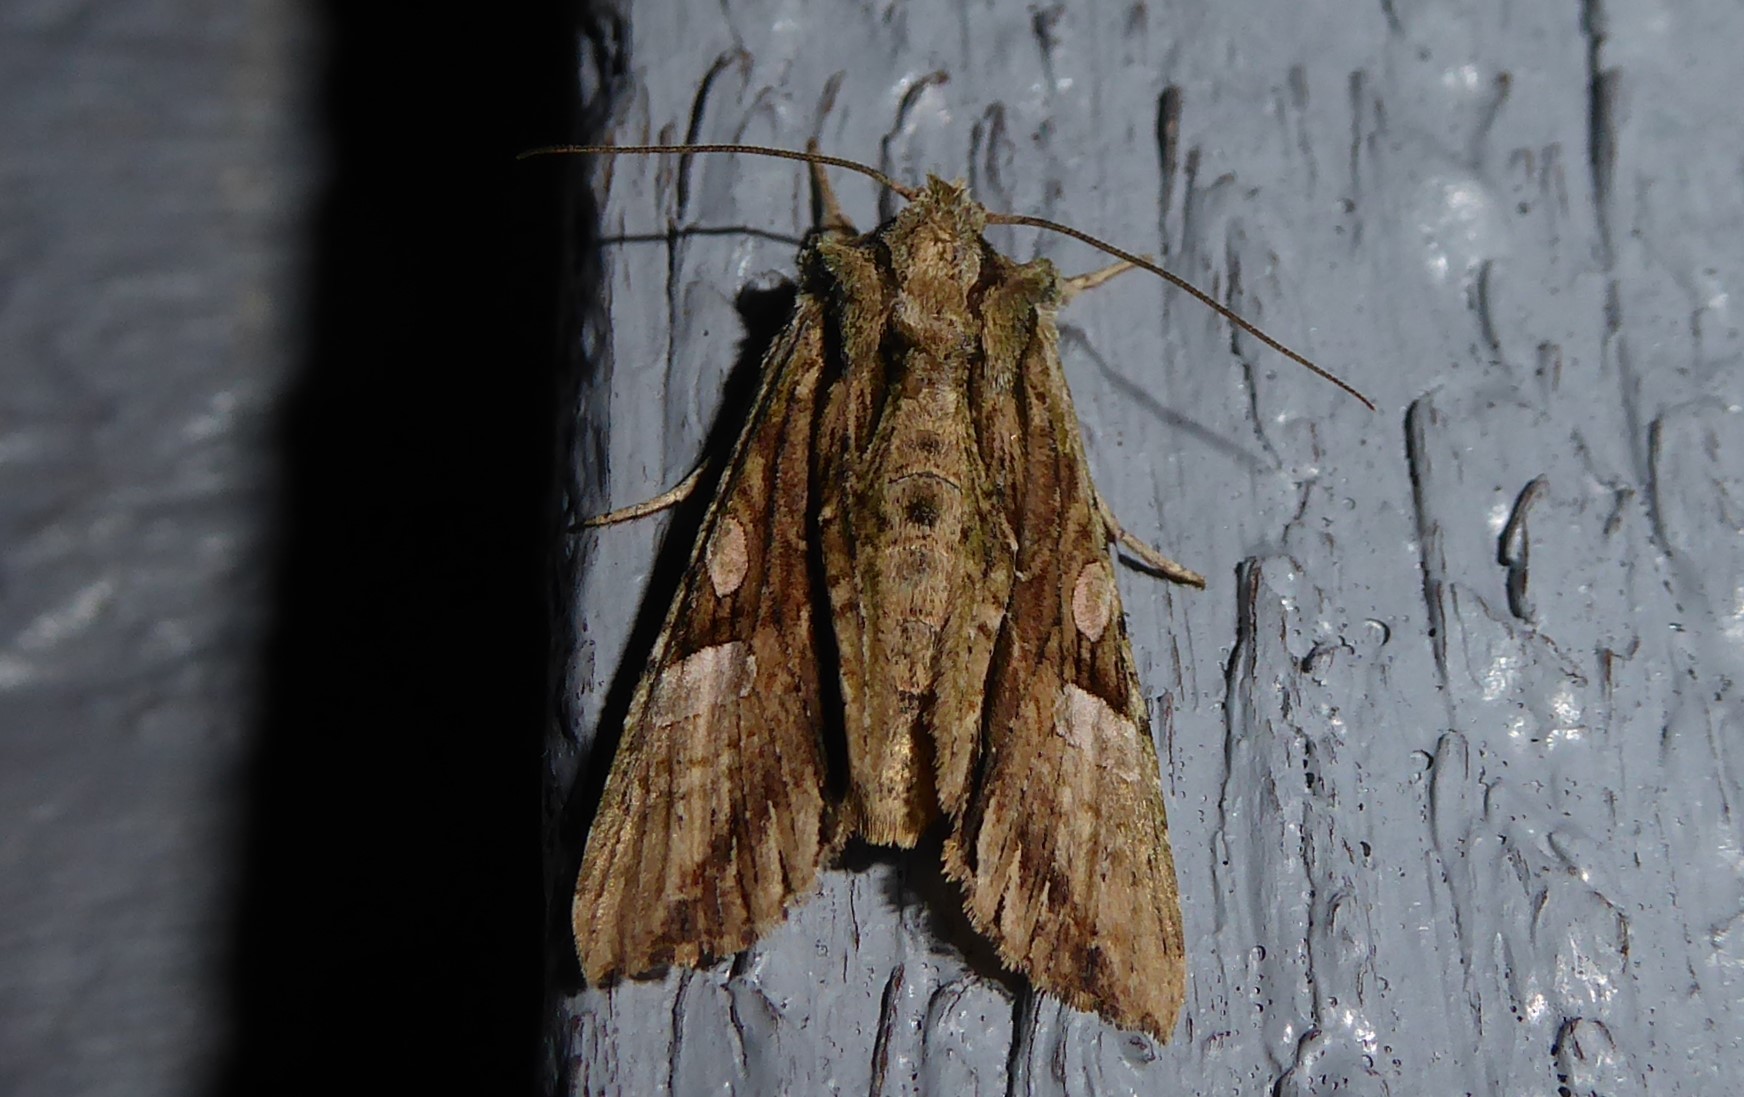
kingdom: Animalia
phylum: Arthropoda
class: Insecta
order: Lepidoptera
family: Noctuidae
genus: Meterana
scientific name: Meterana decorata
